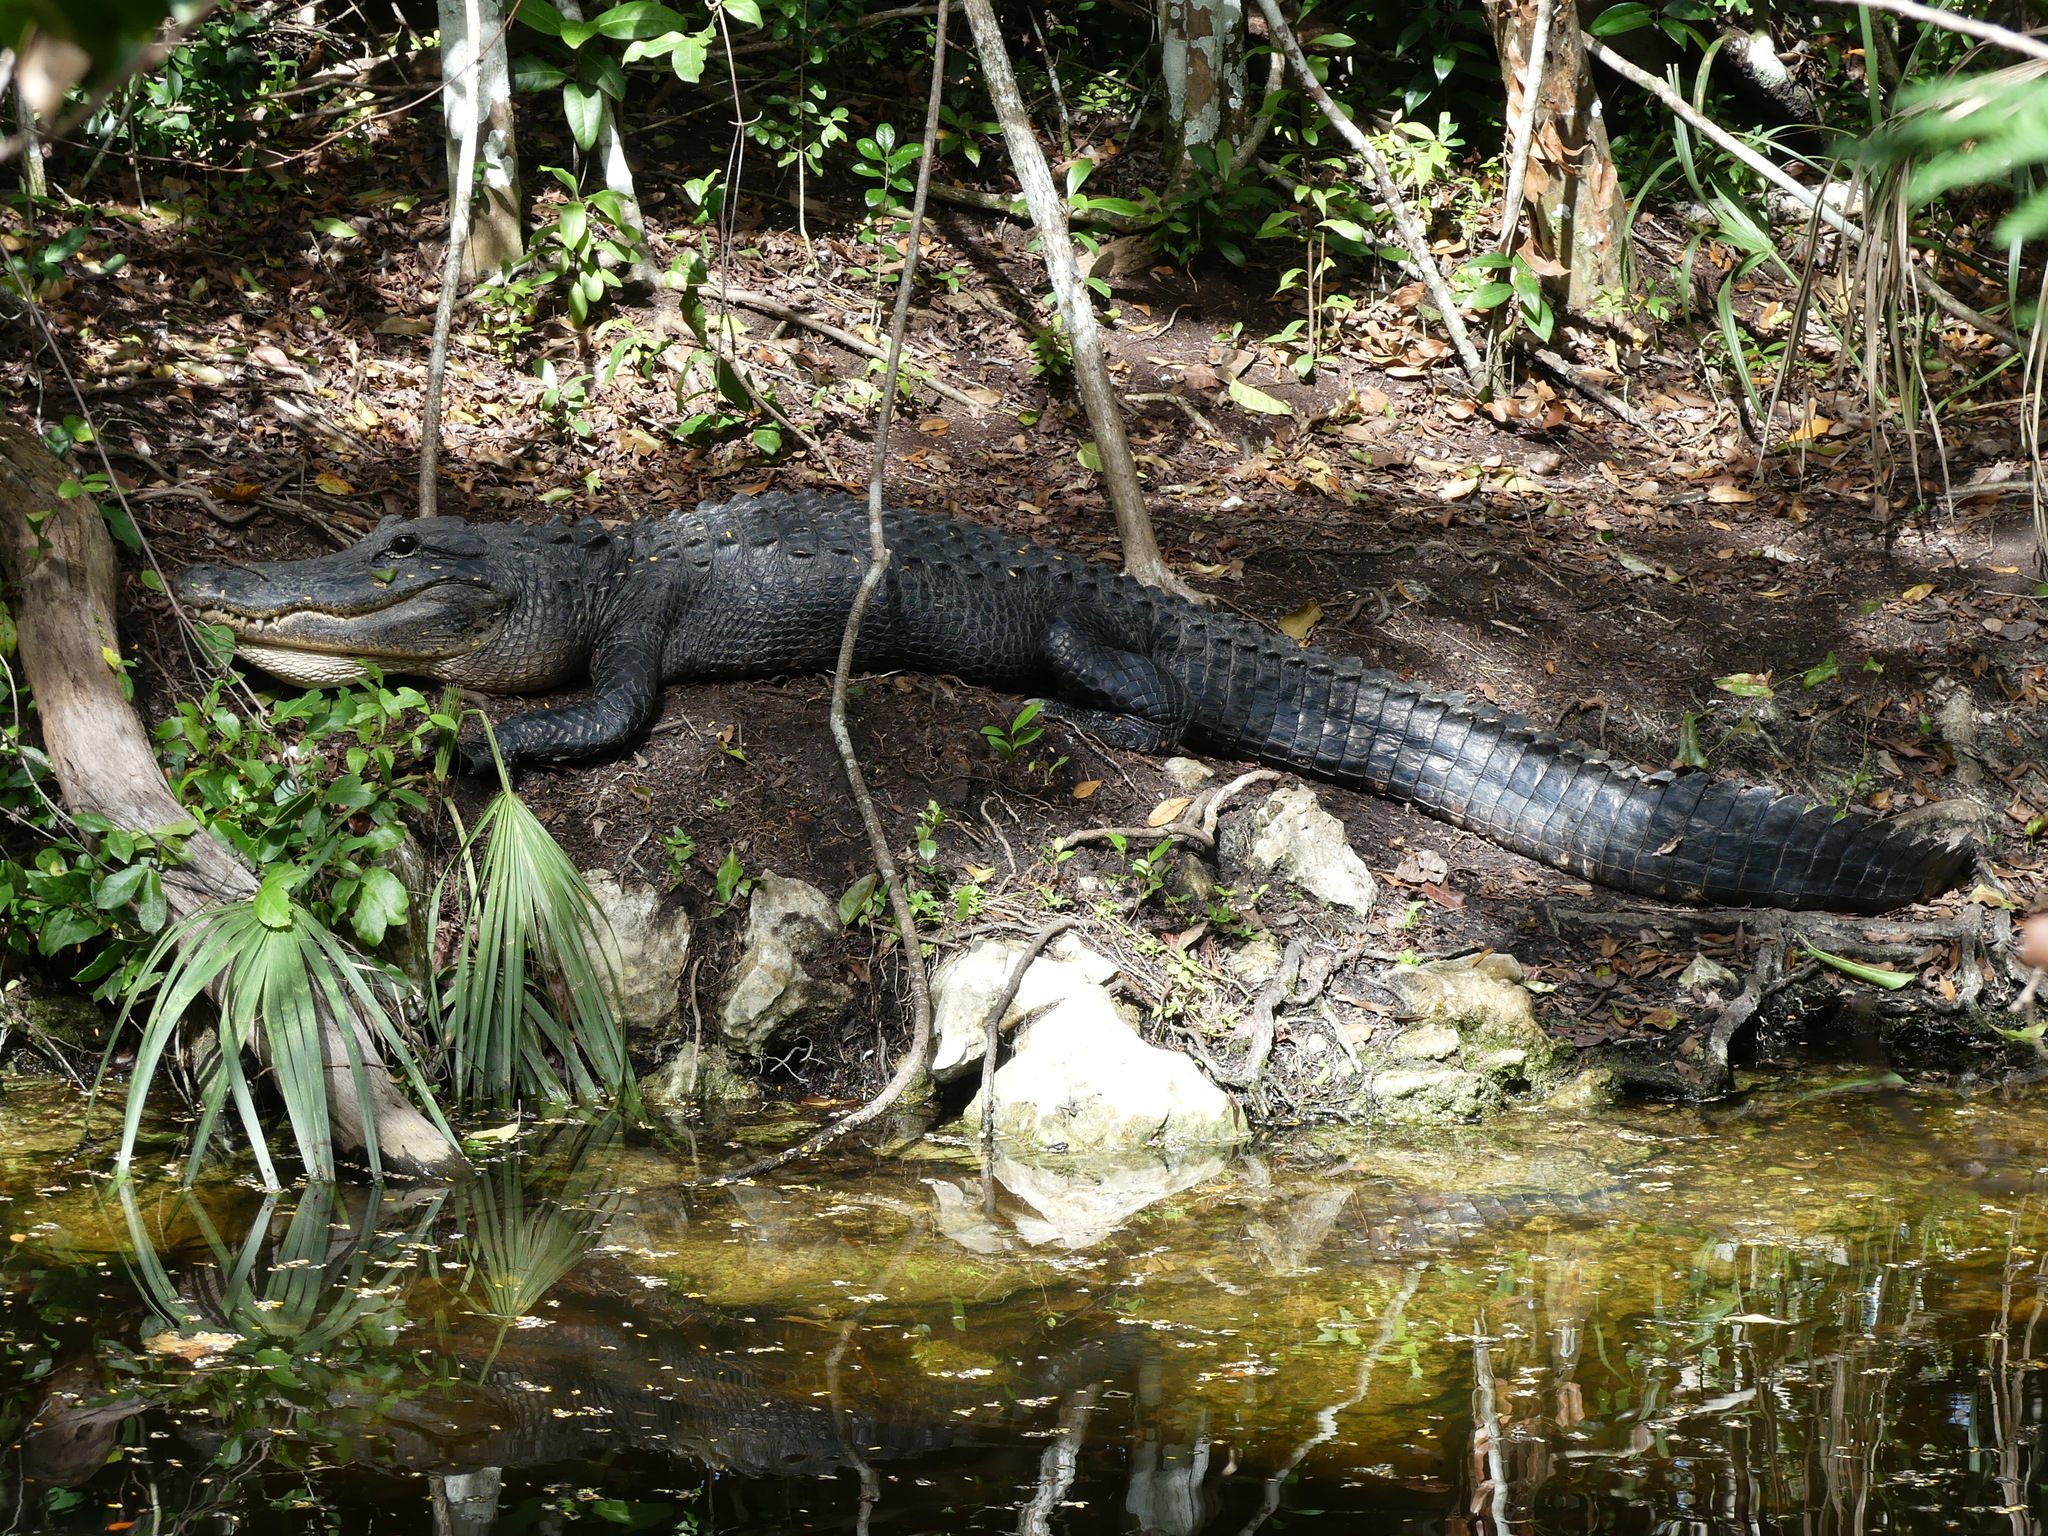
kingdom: Animalia
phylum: Chordata
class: Crocodylia
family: Alligatoridae
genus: Alligator
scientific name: Alligator mississippiensis
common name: American alligator
